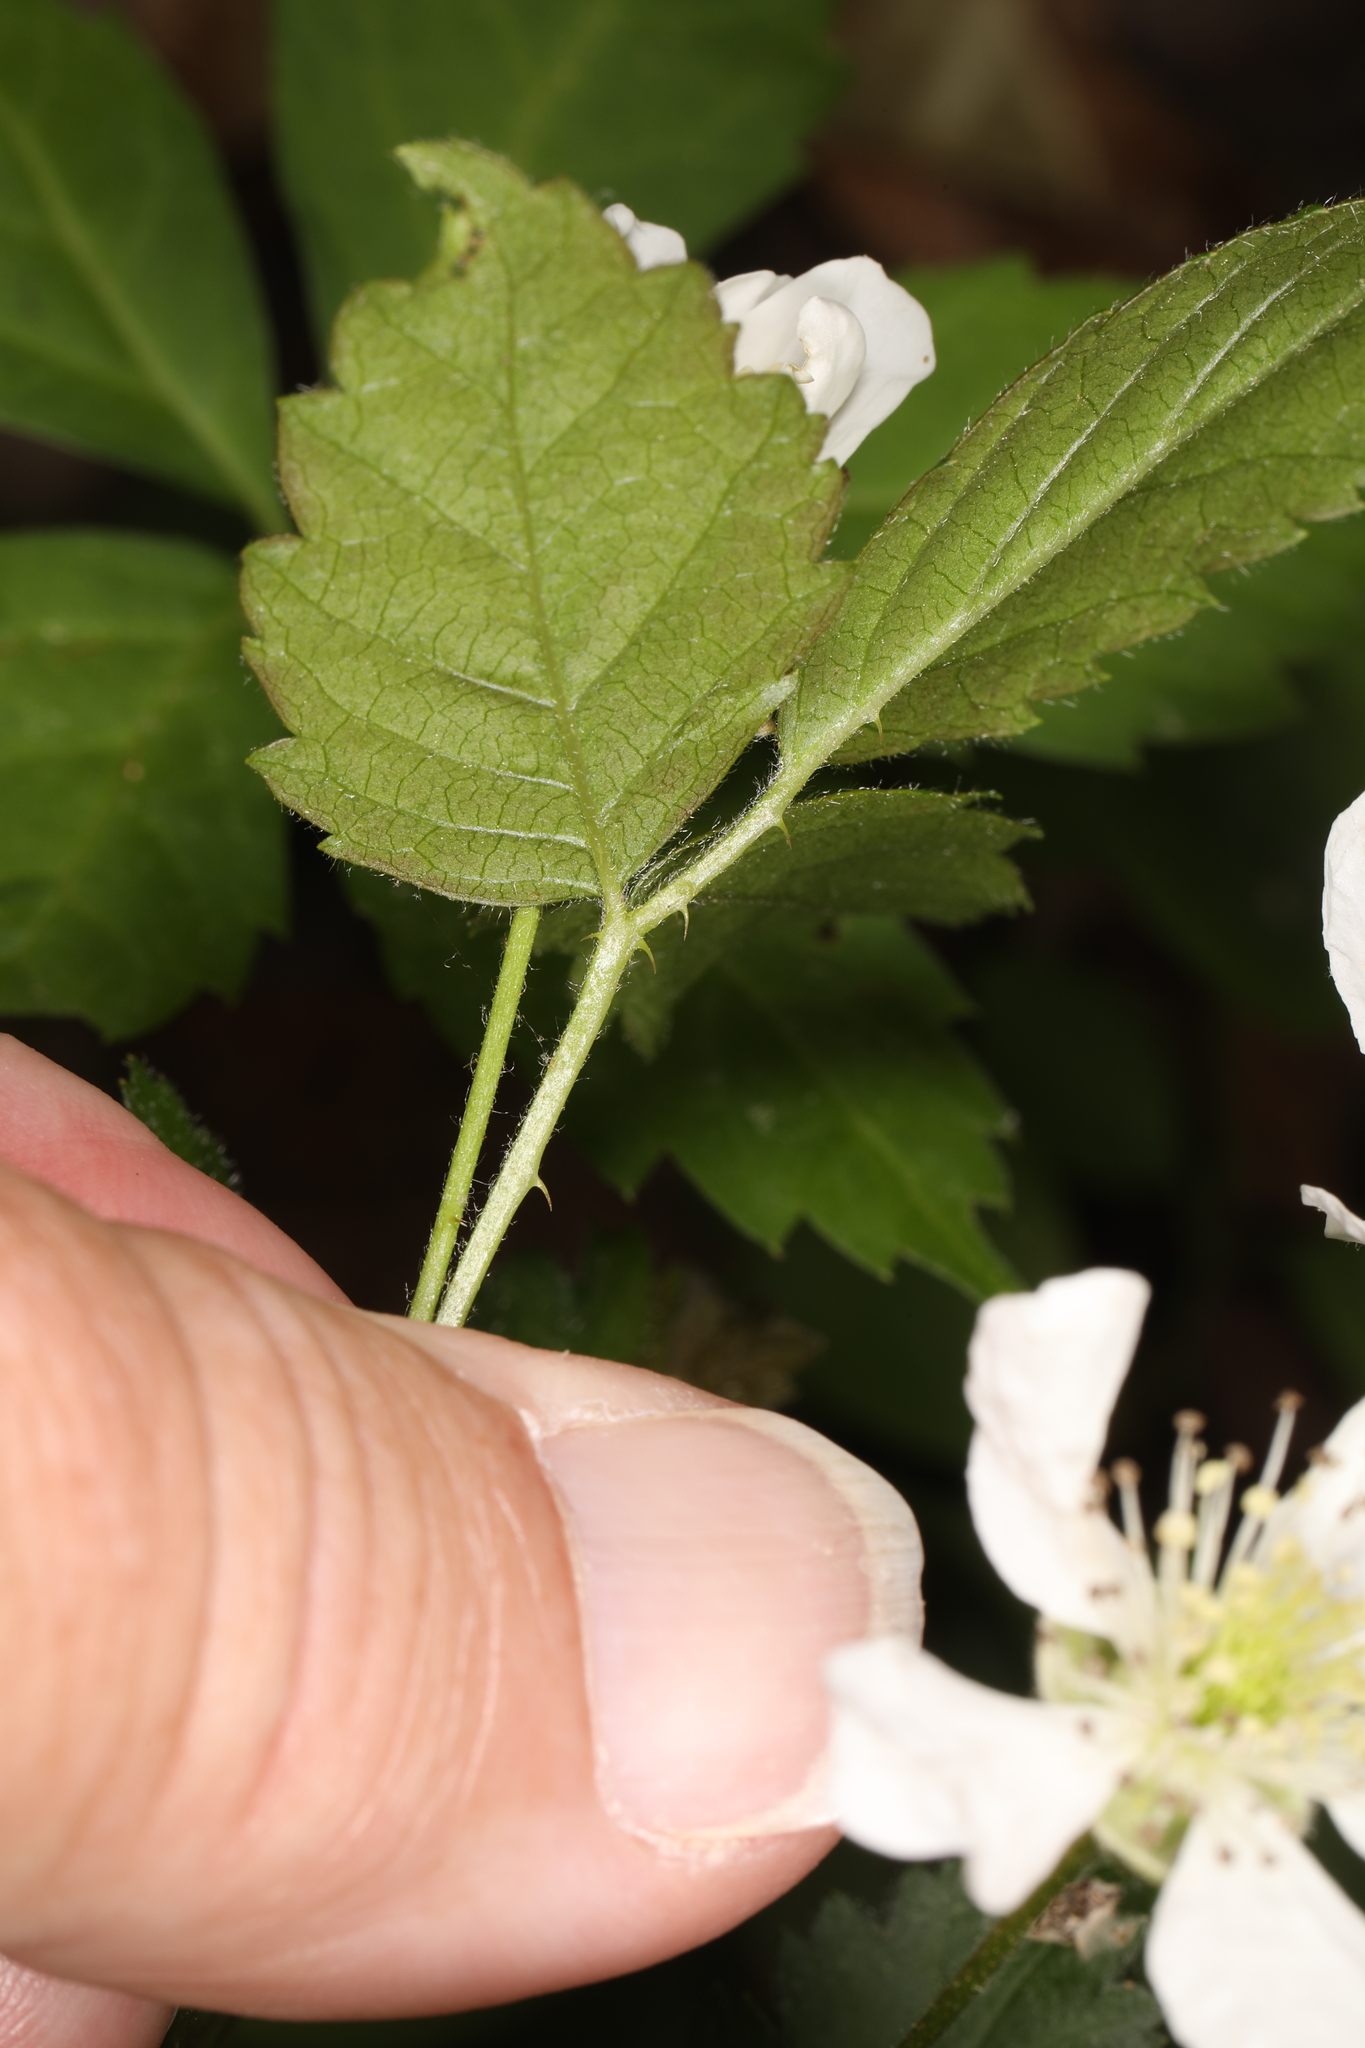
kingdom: Plantae
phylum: Tracheophyta
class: Magnoliopsida
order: Rosales
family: Rosaceae
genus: Rubus
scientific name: Rubus flagellaris
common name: American dewberry
